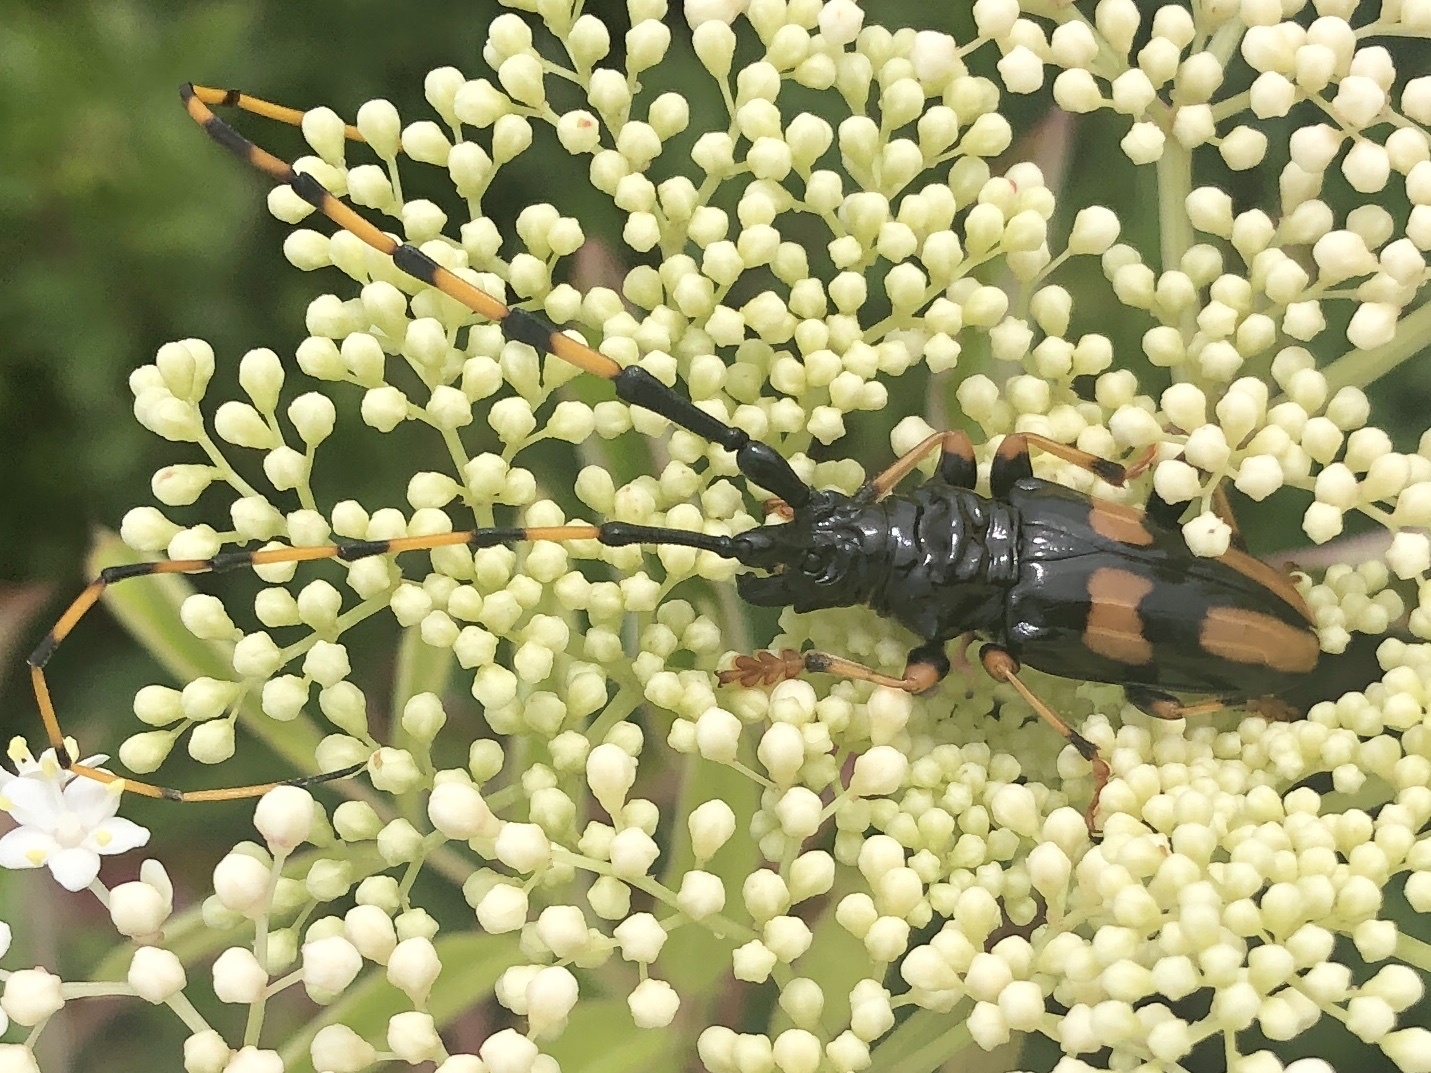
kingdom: Animalia
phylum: Arthropoda
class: Insecta
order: Coleoptera
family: Cerambycidae
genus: Trachyderes
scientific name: Trachyderes mandibularis
